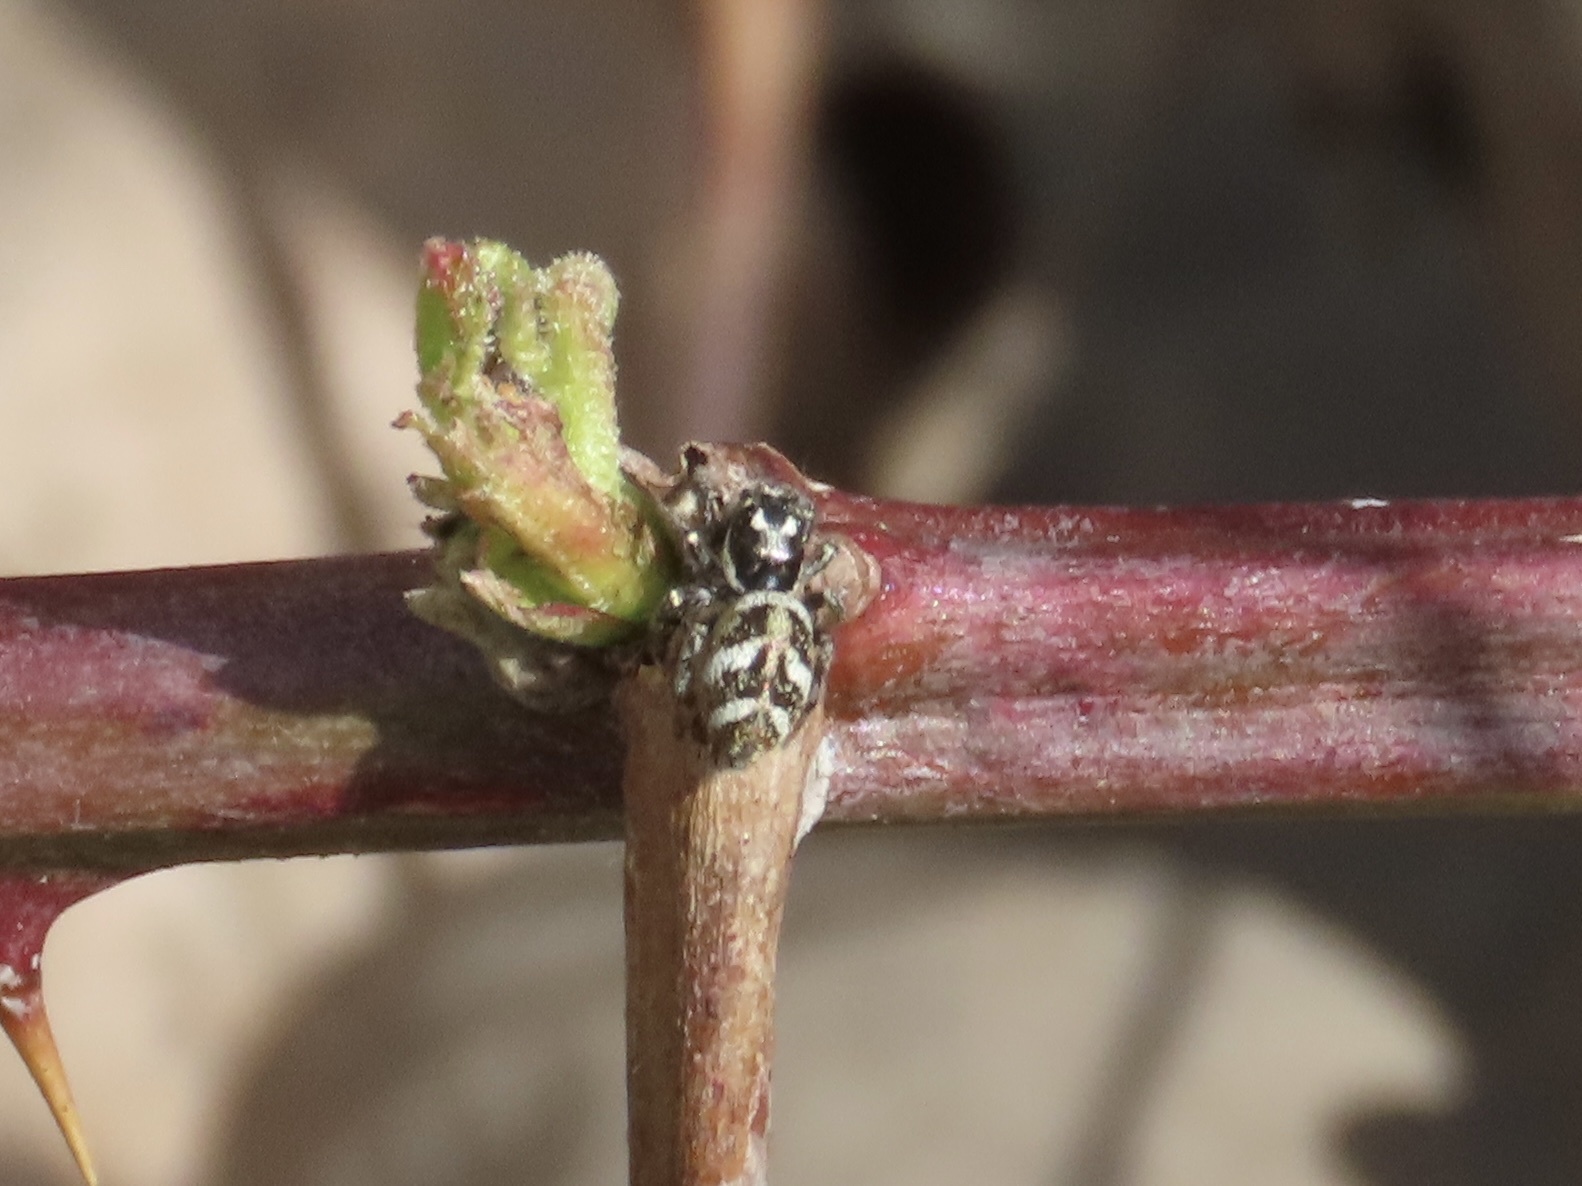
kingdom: Animalia
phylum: Arthropoda
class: Arachnida
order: Araneae
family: Salticidae
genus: Salticus
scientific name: Salticus scenicus
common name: Zebra jumper
